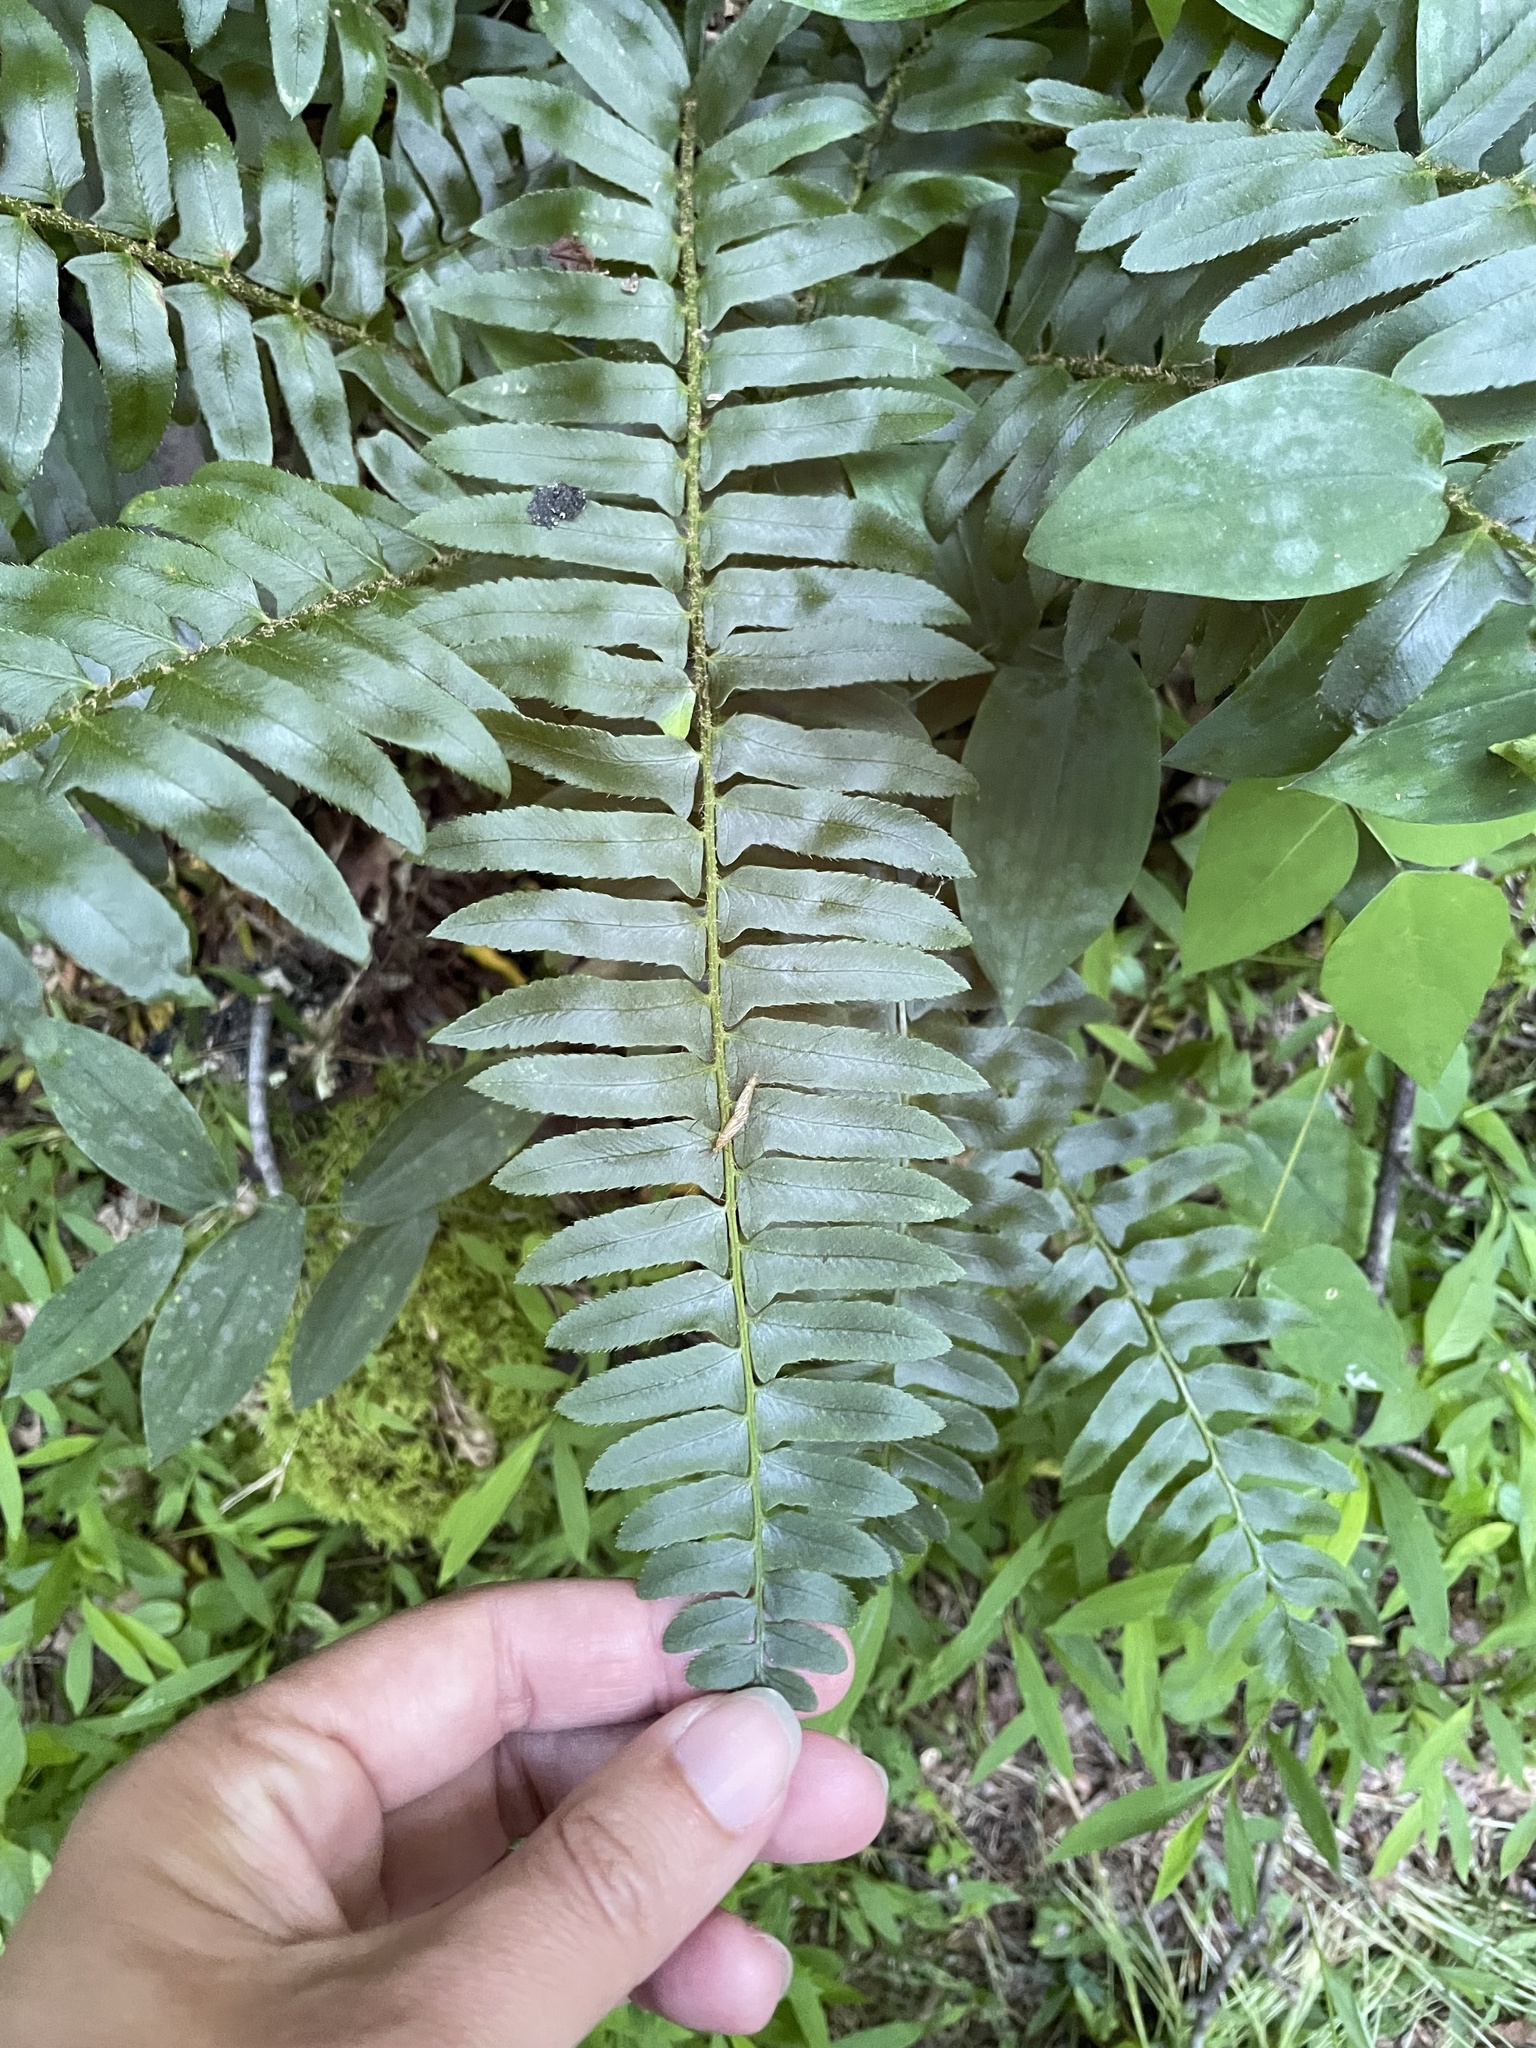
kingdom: Plantae
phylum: Tracheophyta
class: Polypodiopsida
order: Polypodiales
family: Dryopteridaceae
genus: Polystichum
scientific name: Polystichum acrostichoides
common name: Christmas fern
